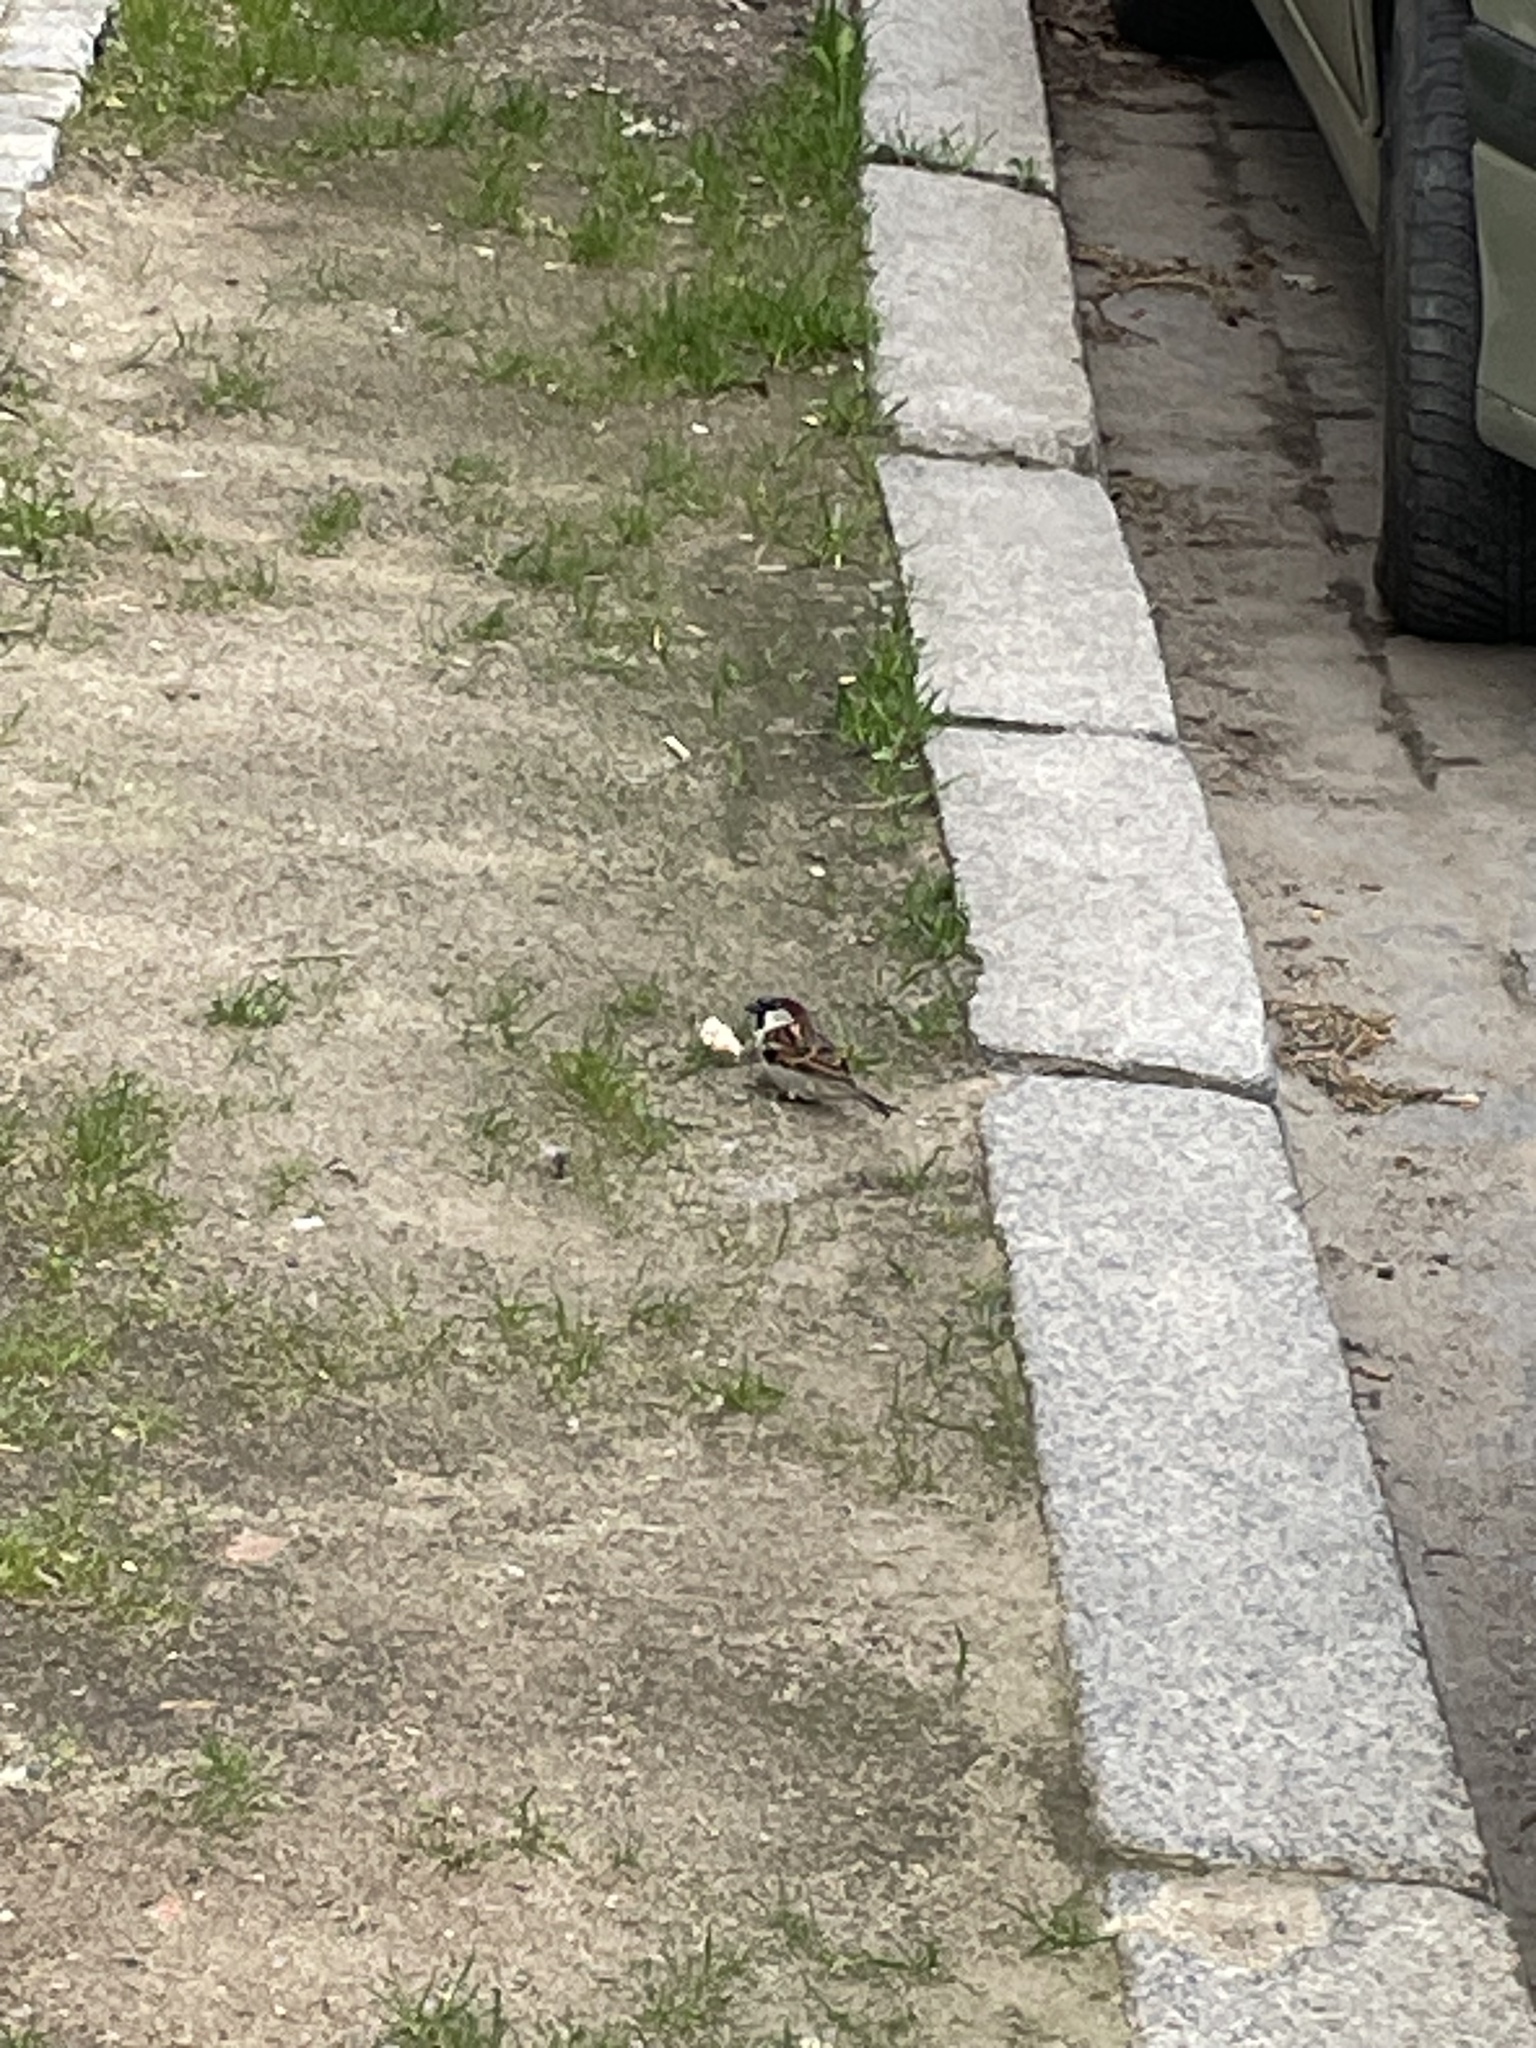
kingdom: Animalia
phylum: Chordata
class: Aves
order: Passeriformes
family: Passeridae
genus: Passer
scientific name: Passer domesticus
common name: House sparrow
